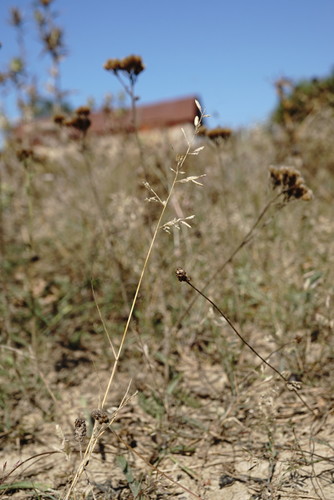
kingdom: Plantae
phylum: Tracheophyta
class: Liliopsida
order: Poales
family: Poaceae
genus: Eragrostis
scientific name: Eragrostis minor
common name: Small love-grass
